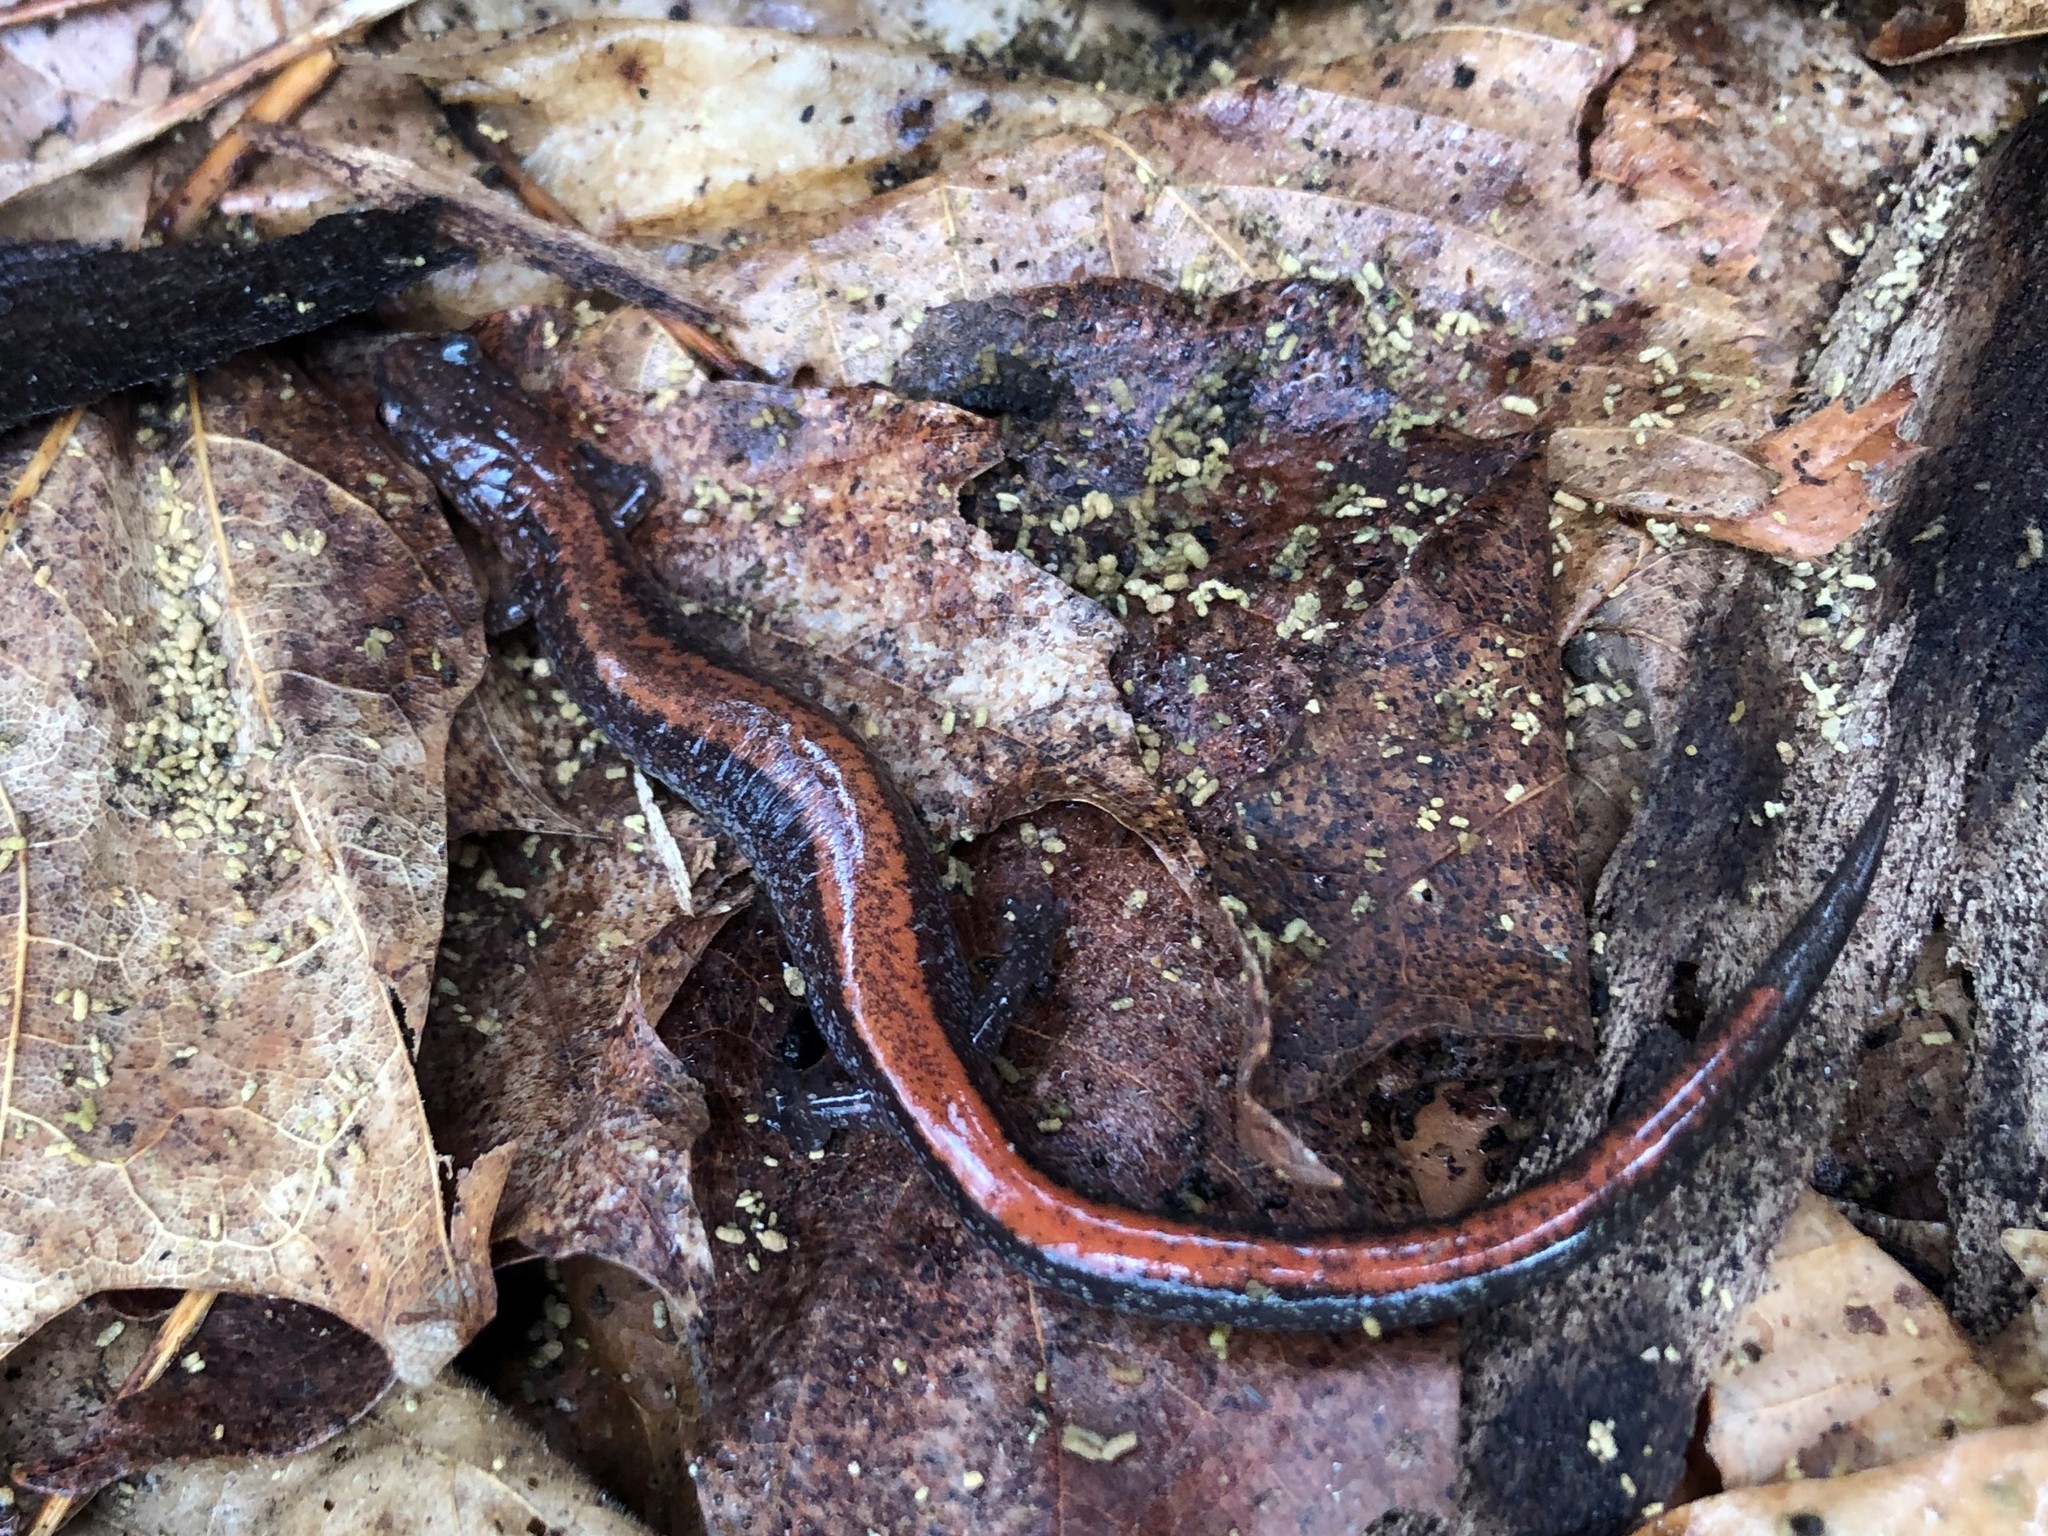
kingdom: Animalia
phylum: Chordata
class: Amphibia
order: Caudata
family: Plethodontidae
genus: Plethodon
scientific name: Plethodon cinereus
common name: Redback salamander
